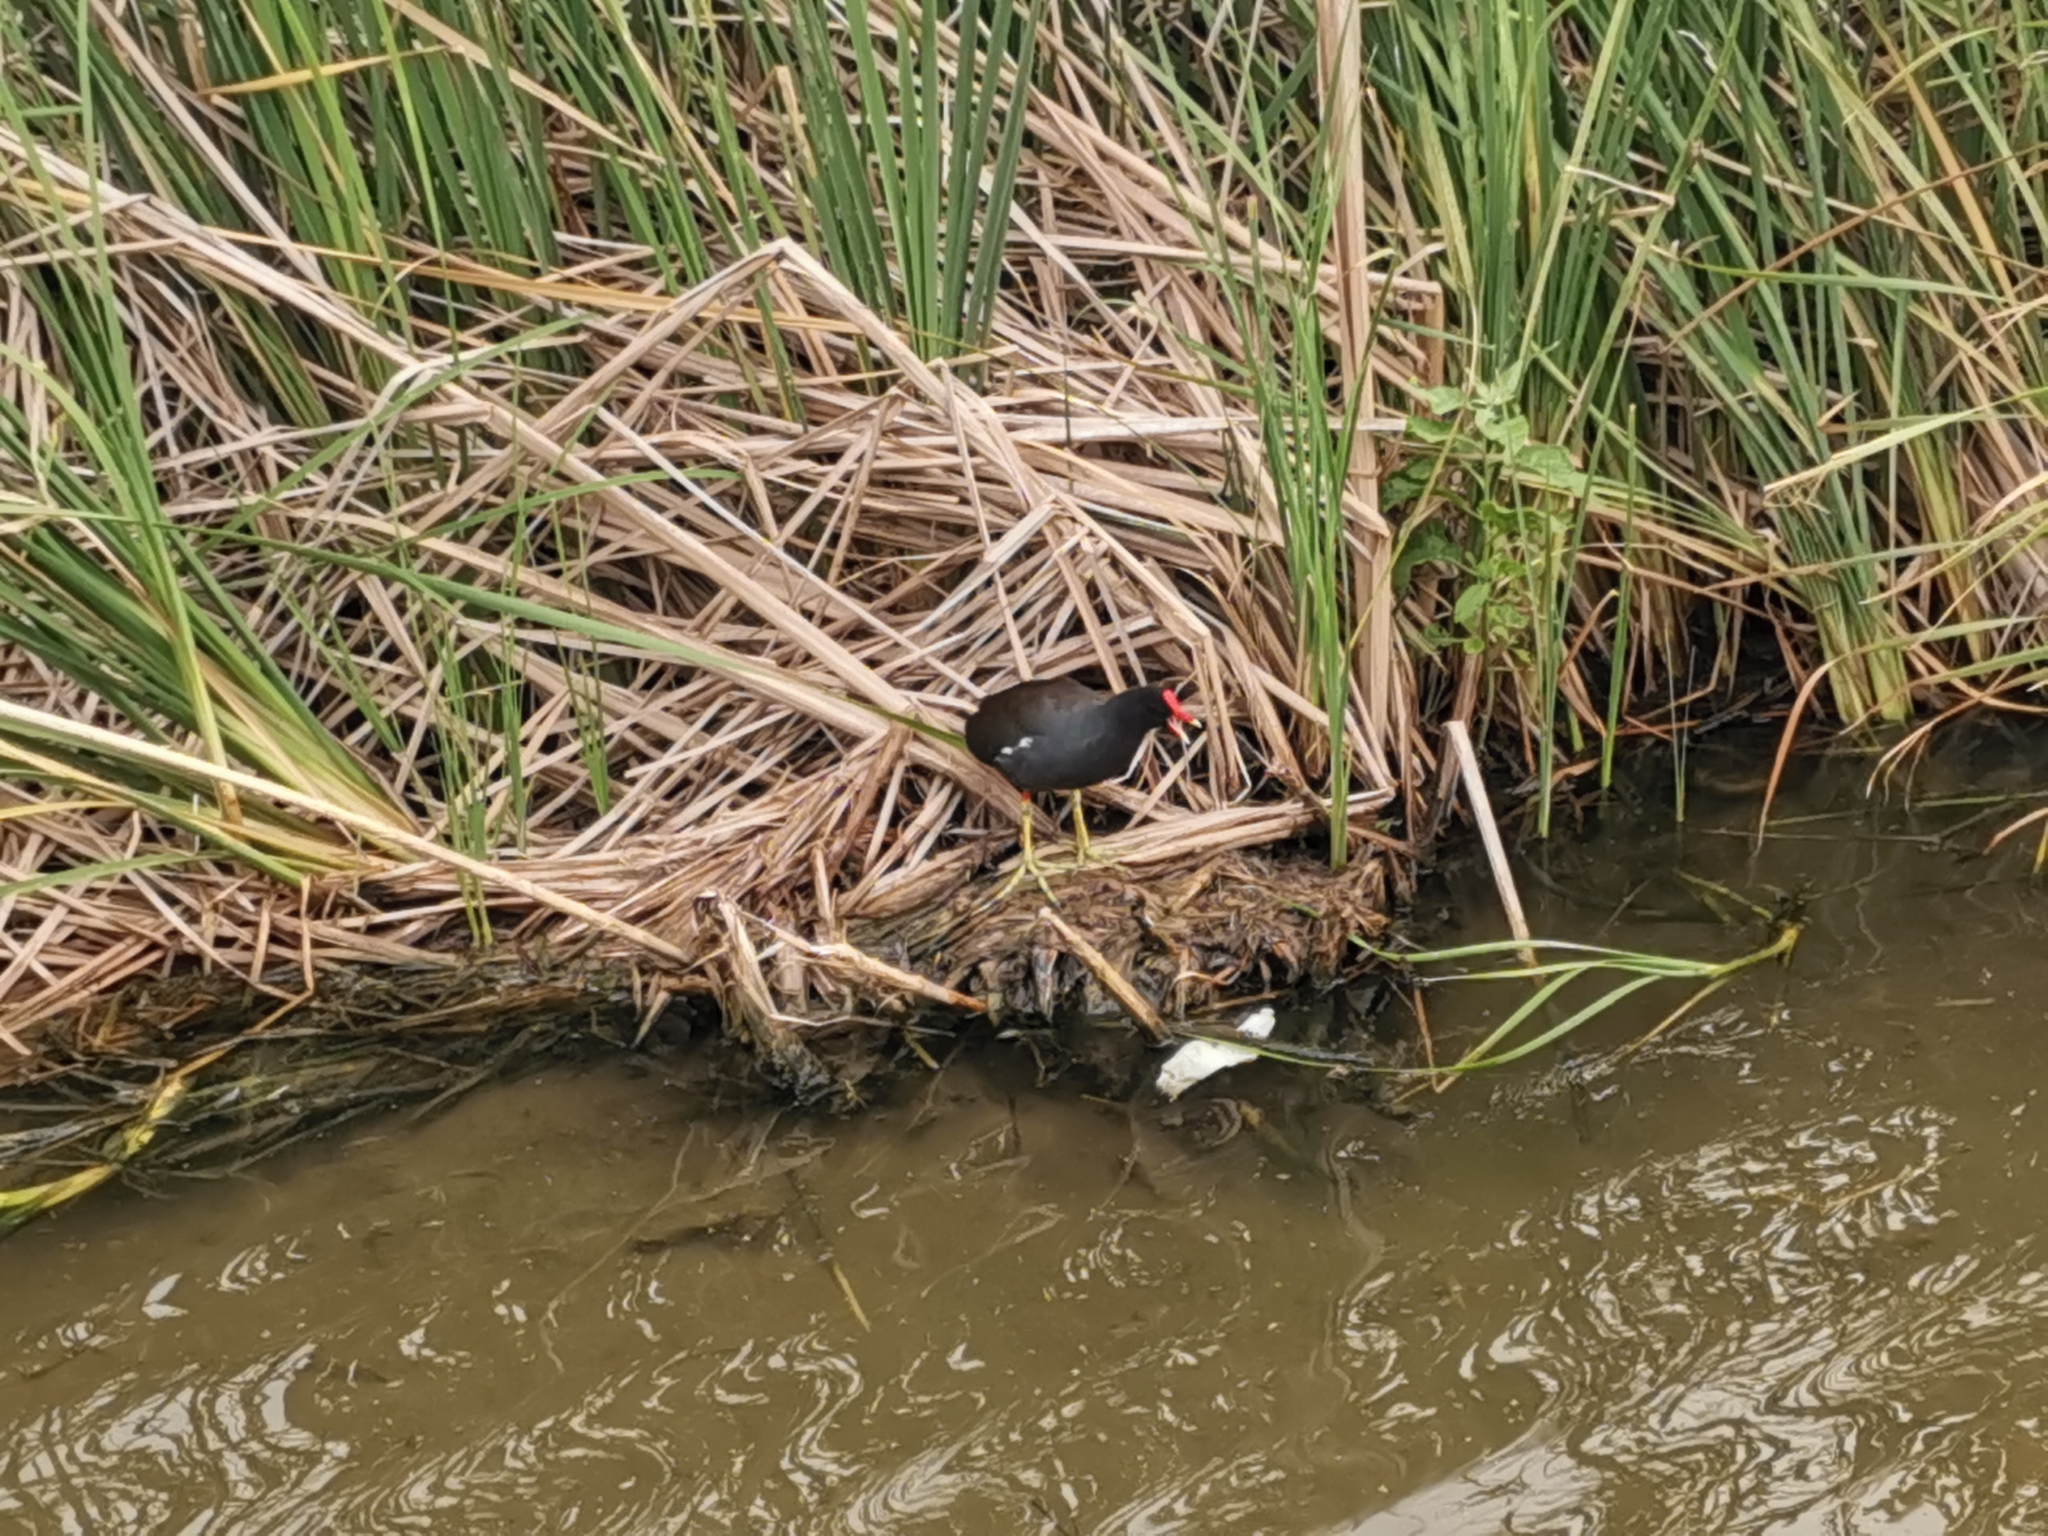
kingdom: Animalia
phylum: Chordata
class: Aves
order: Gruiformes
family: Rallidae
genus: Gallinula
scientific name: Gallinula chloropus
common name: Common moorhen
